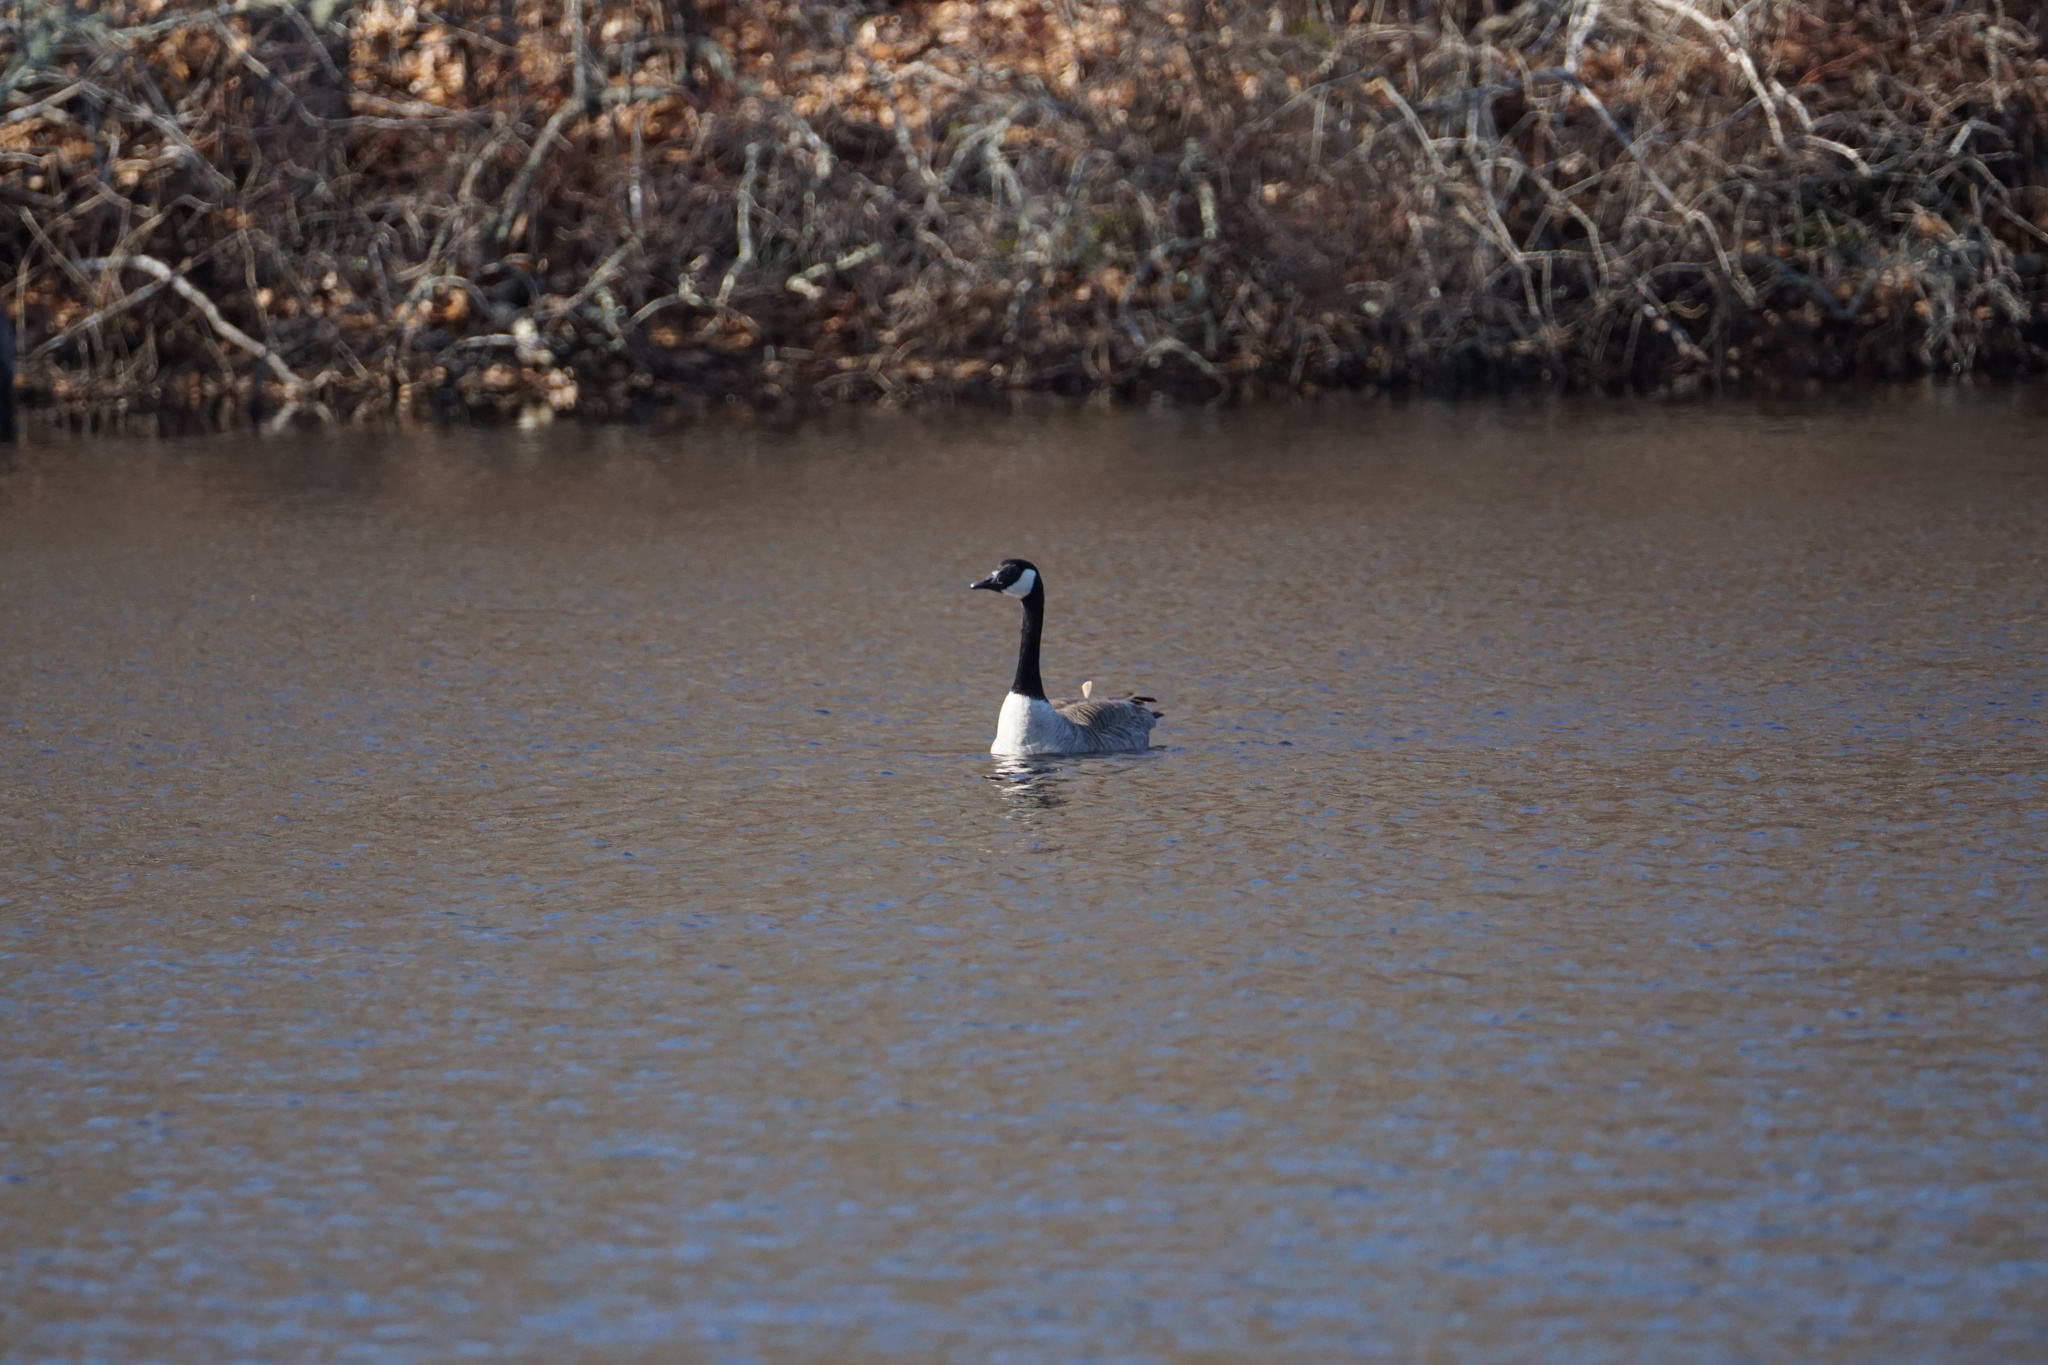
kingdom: Animalia
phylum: Chordata
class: Aves
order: Anseriformes
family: Anatidae
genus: Branta
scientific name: Branta canadensis
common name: Canada goose
